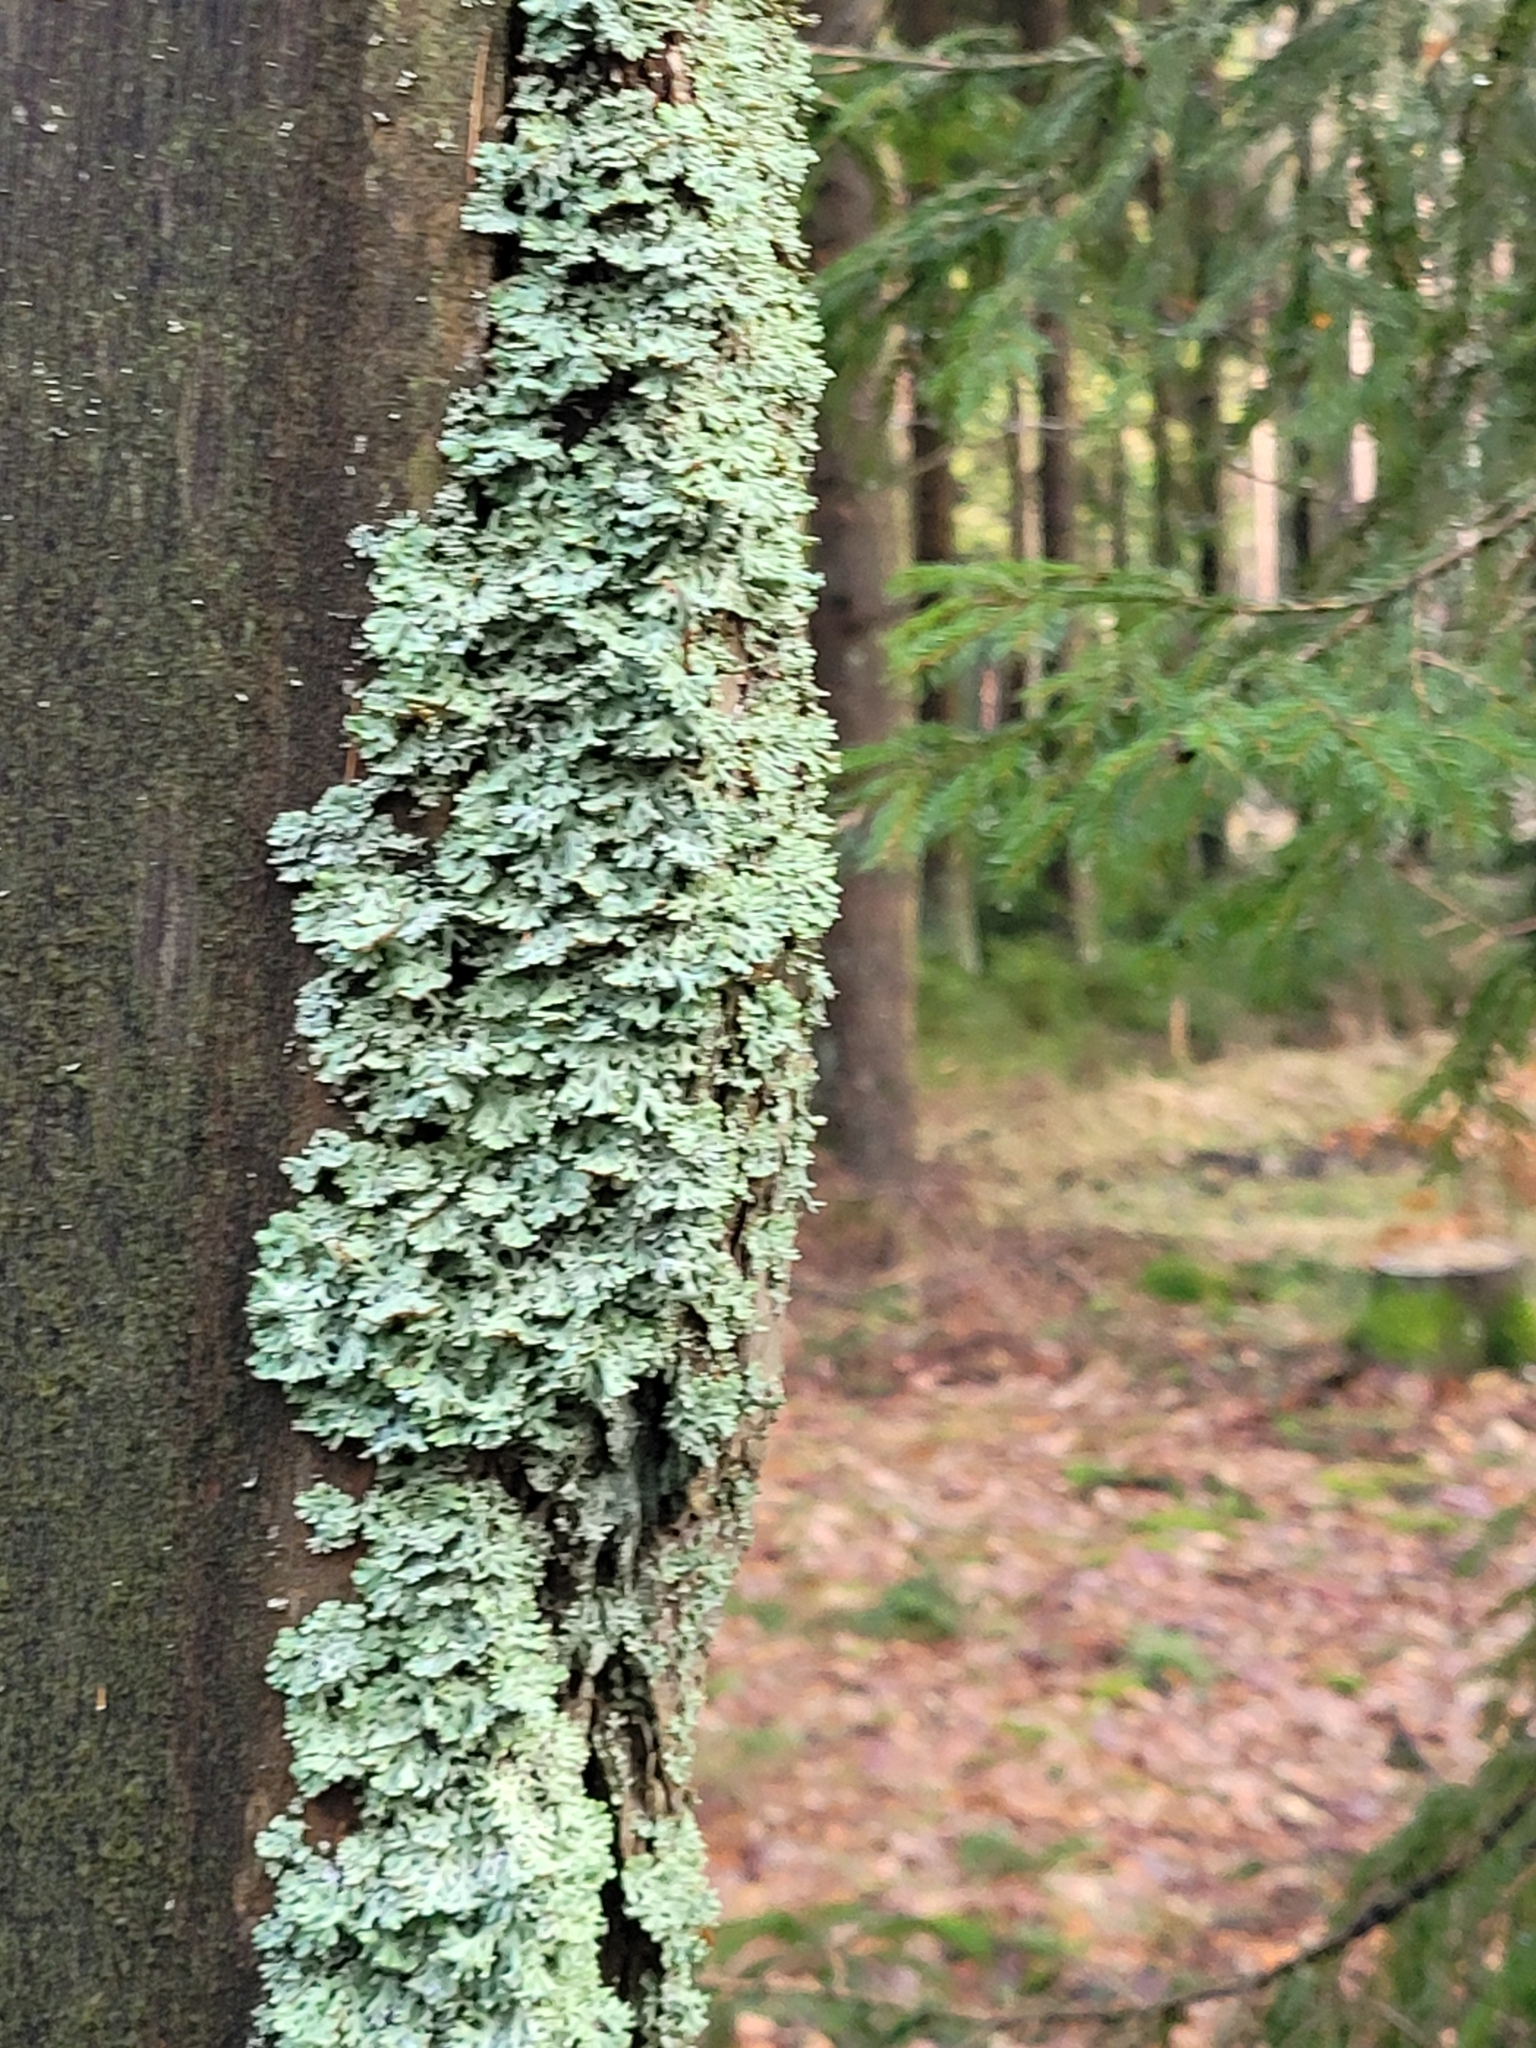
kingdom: Fungi
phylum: Ascomycota
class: Lecanoromycetes
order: Lecanorales
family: Parmeliaceae
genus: Hypogymnia
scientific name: Hypogymnia physodes
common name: Dark crottle
